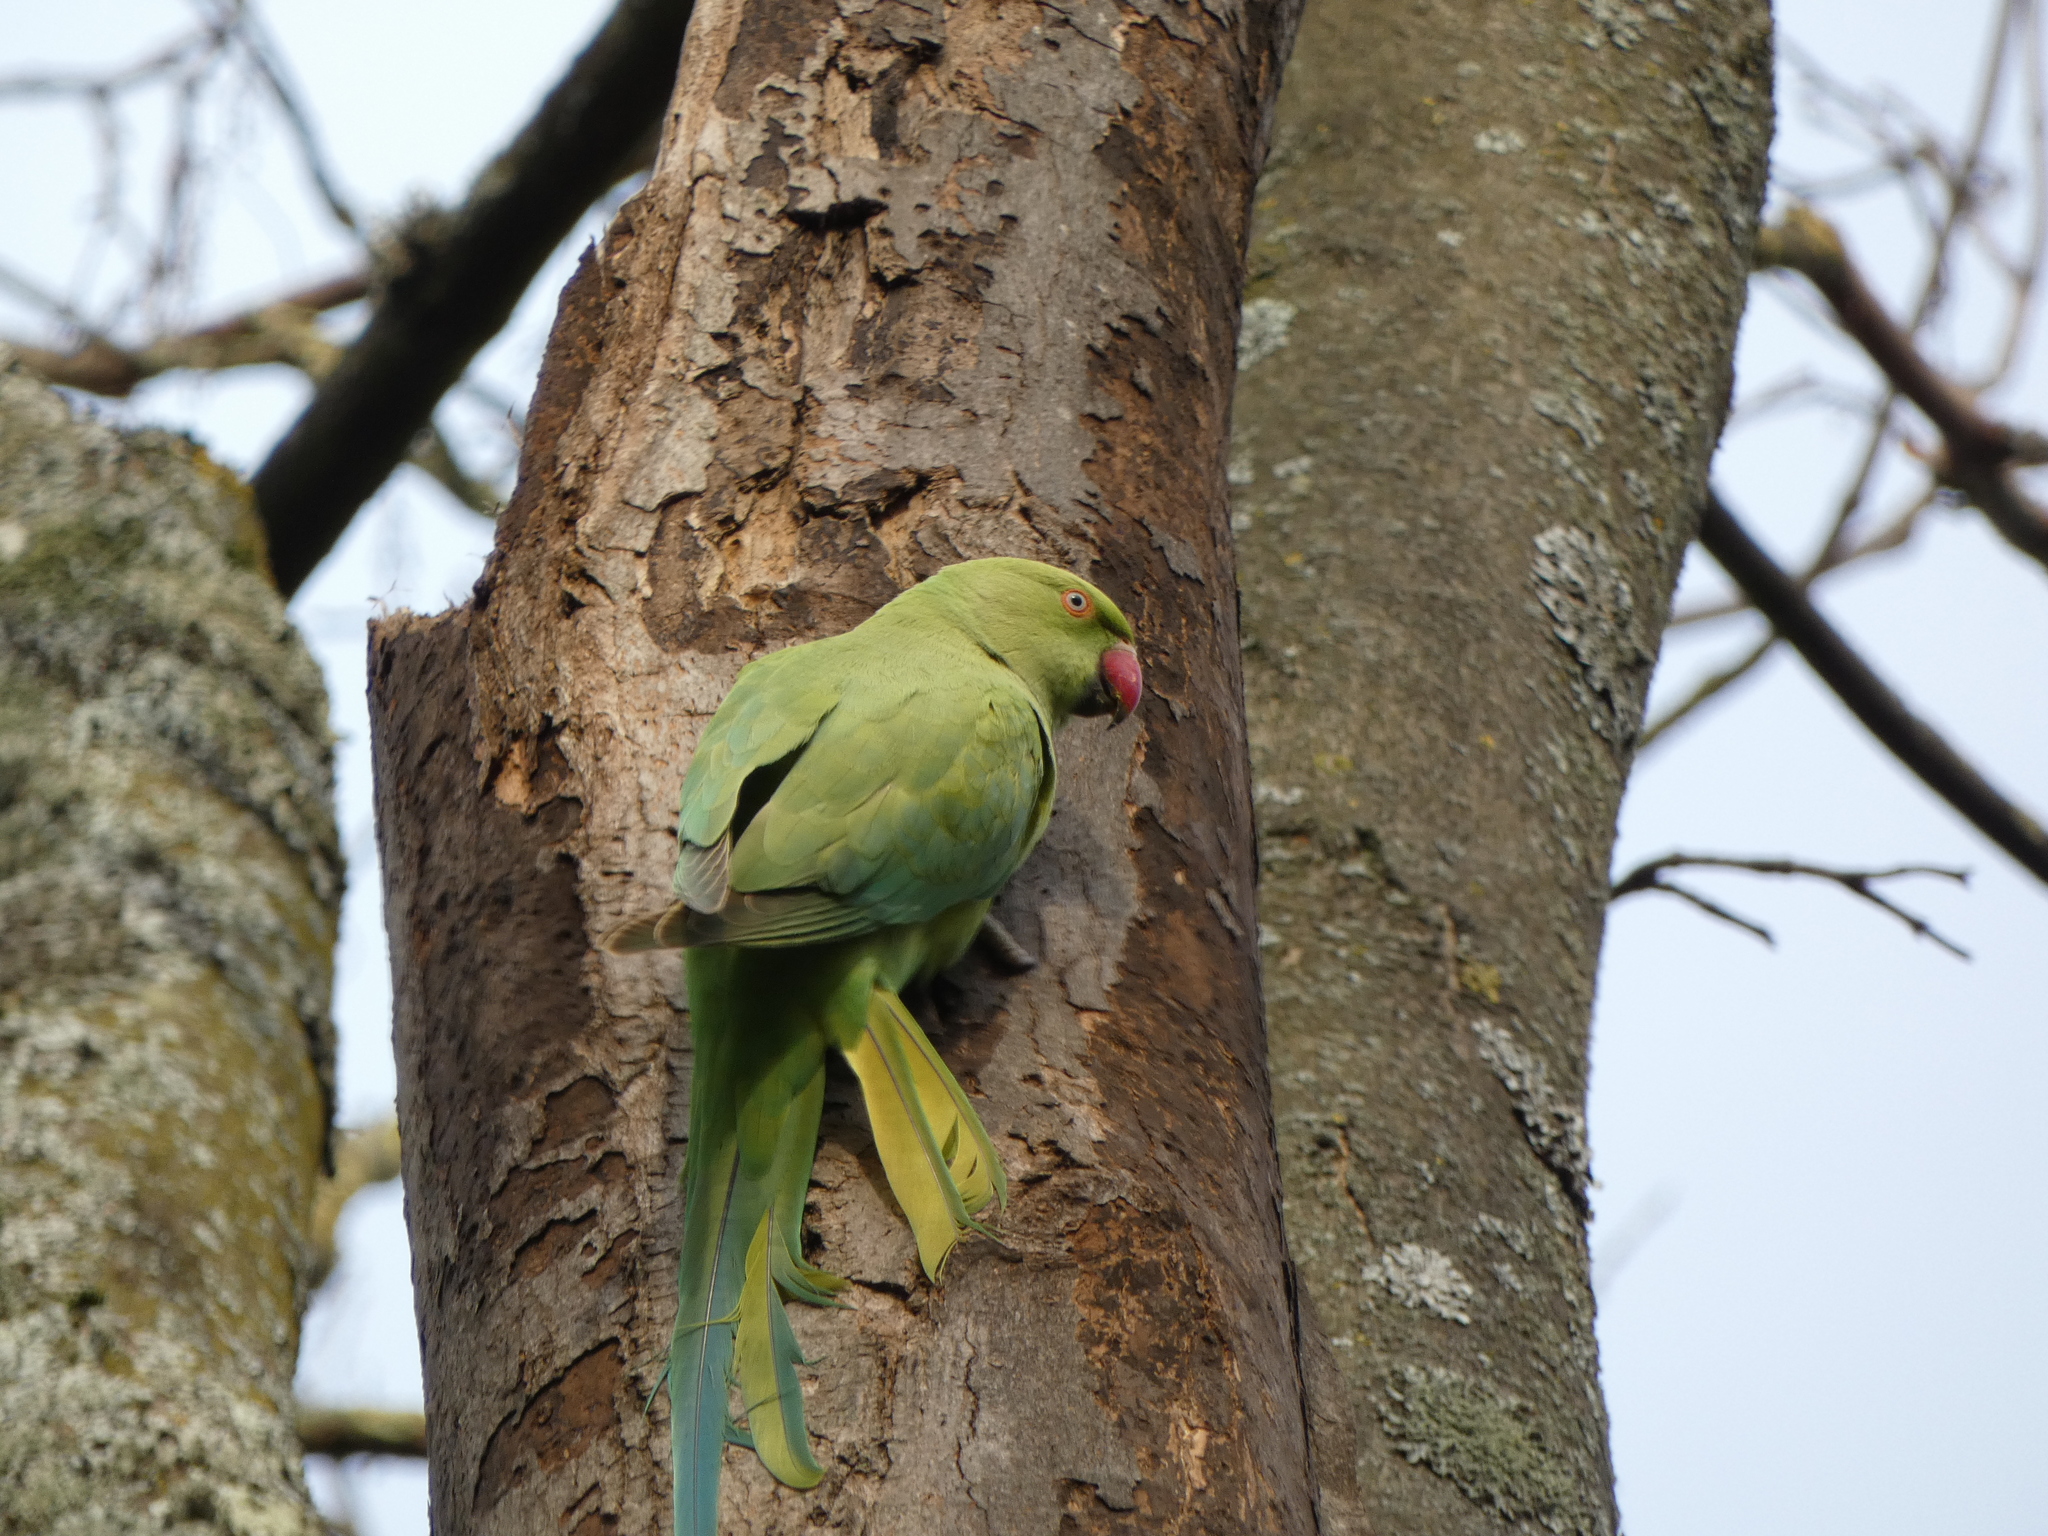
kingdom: Animalia
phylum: Chordata
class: Aves
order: Psittaciformes
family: Psittacidae
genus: Psittacula
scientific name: Psittacula krameri
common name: Rose-ringed parakeet
